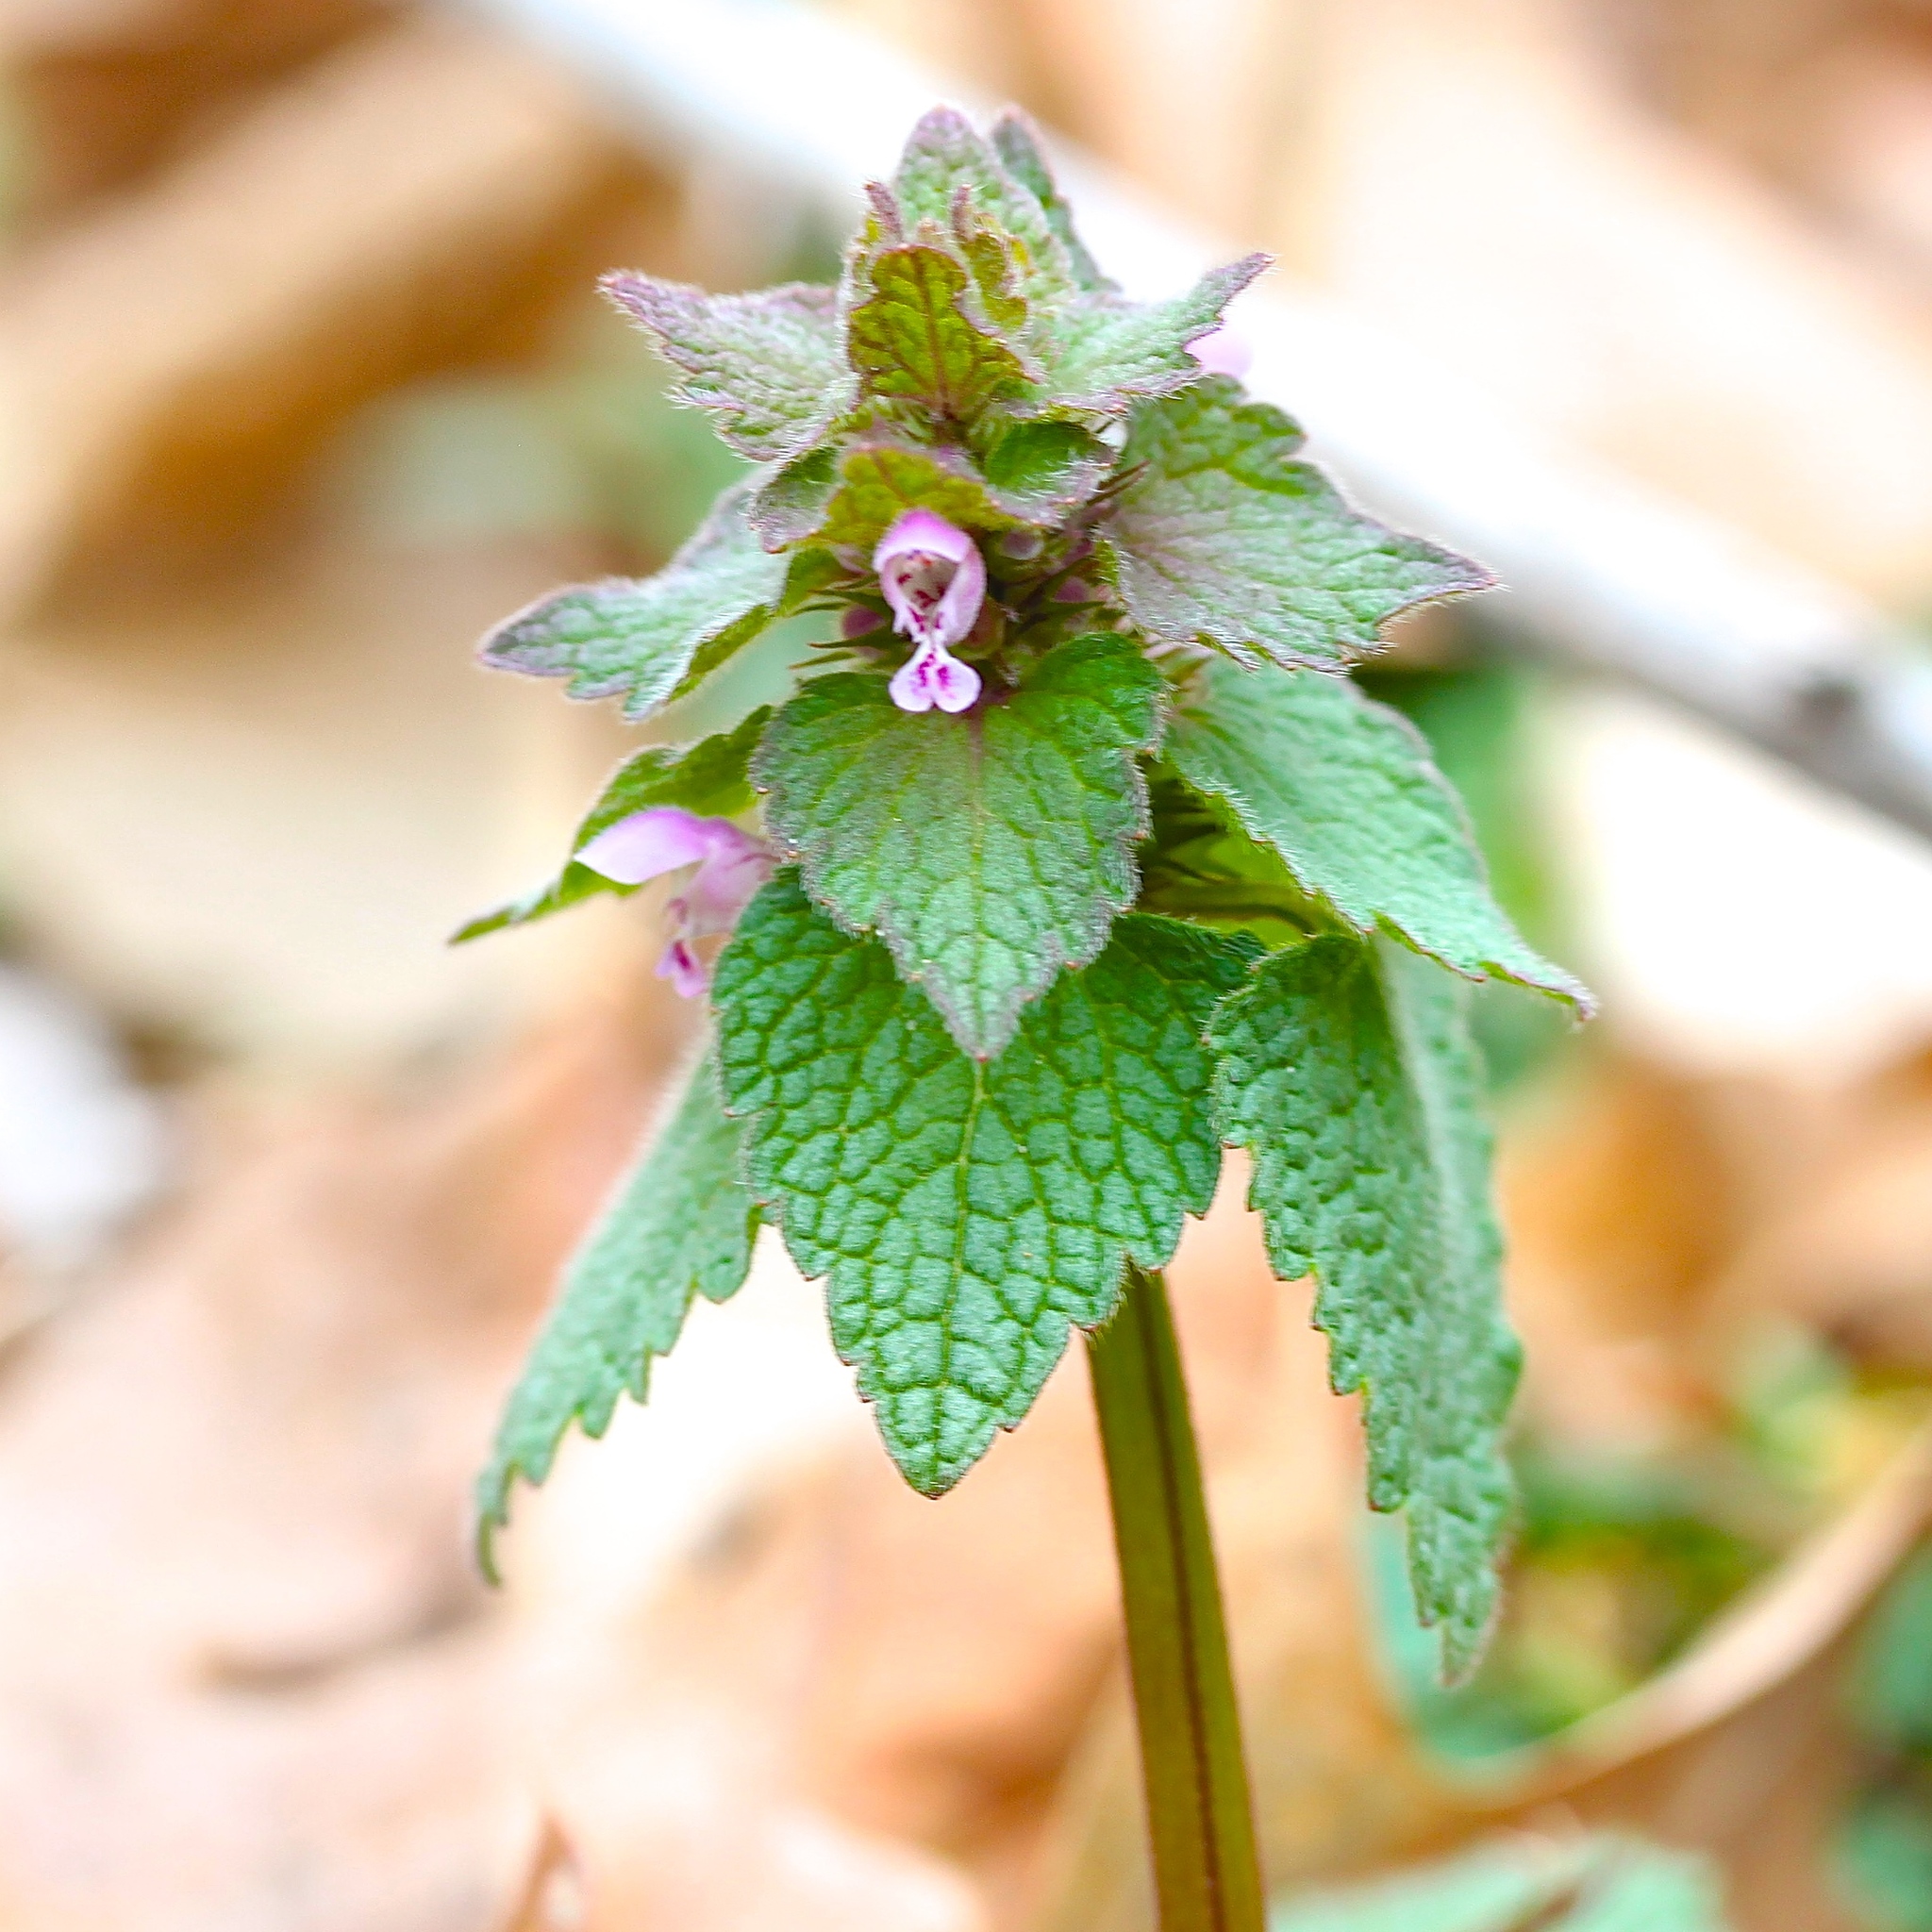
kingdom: Plantae
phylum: Tracheophyta
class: Magnoliopsida
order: Lamiales
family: Lamiaceae
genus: Lamium
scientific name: Lamium purpureum
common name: Red dead-nettle
